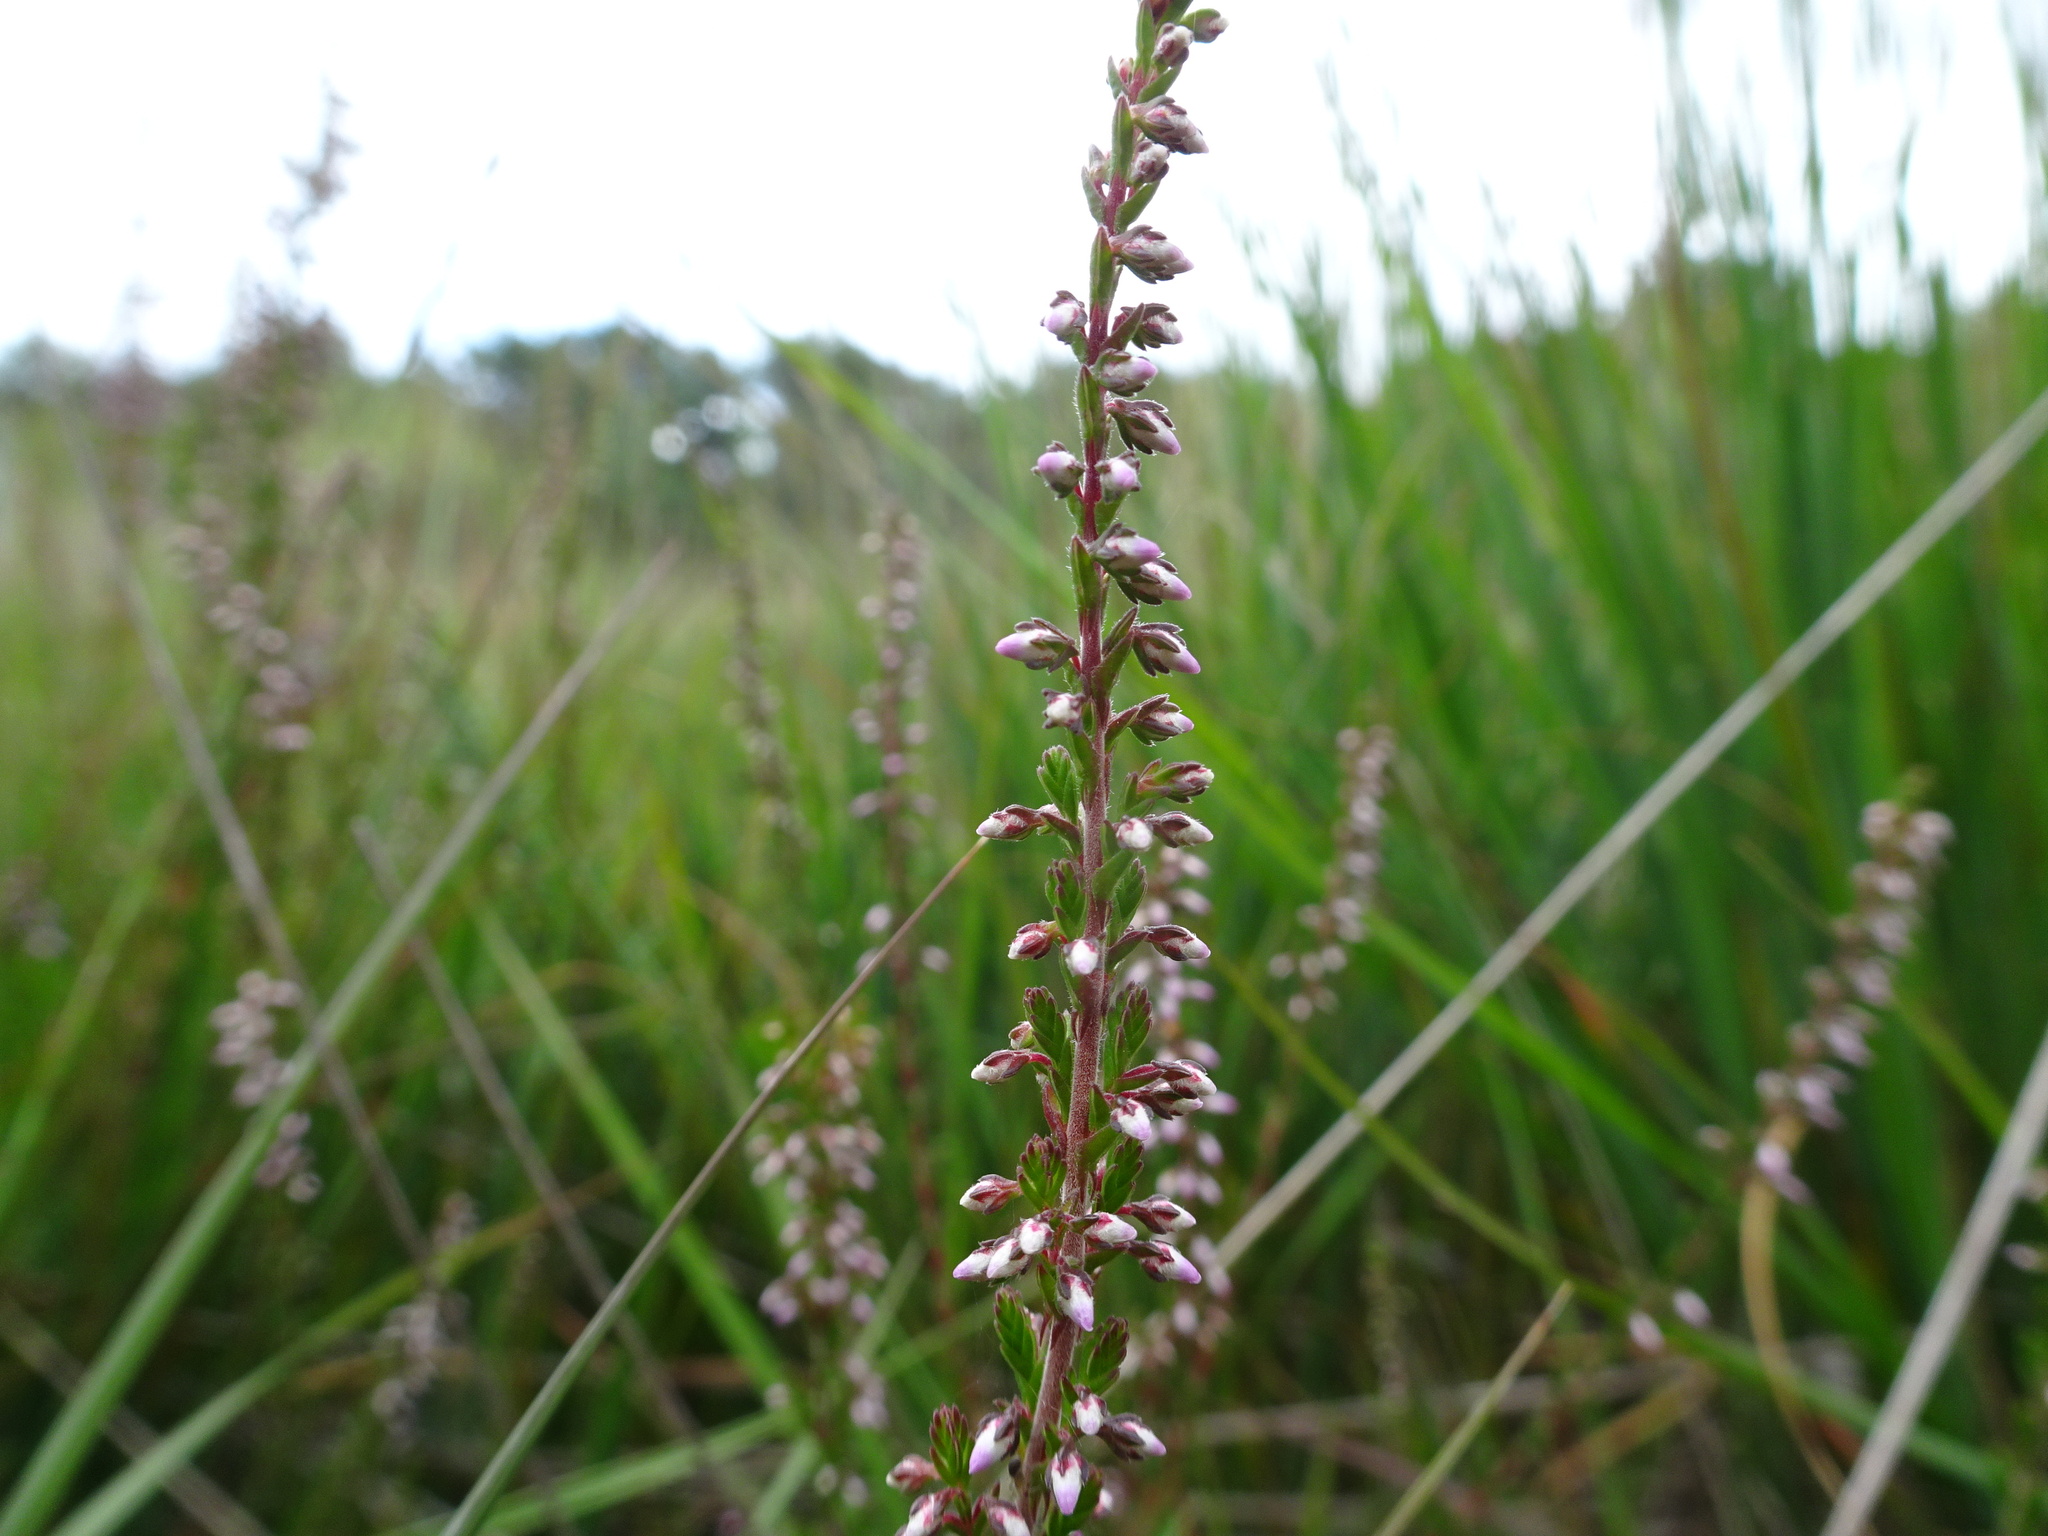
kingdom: Plantae
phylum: Tracheophyta
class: Magnoliopsida
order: Ericales
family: Ericaceae
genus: Calluna
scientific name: Calluna vulgaris
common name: Heather
